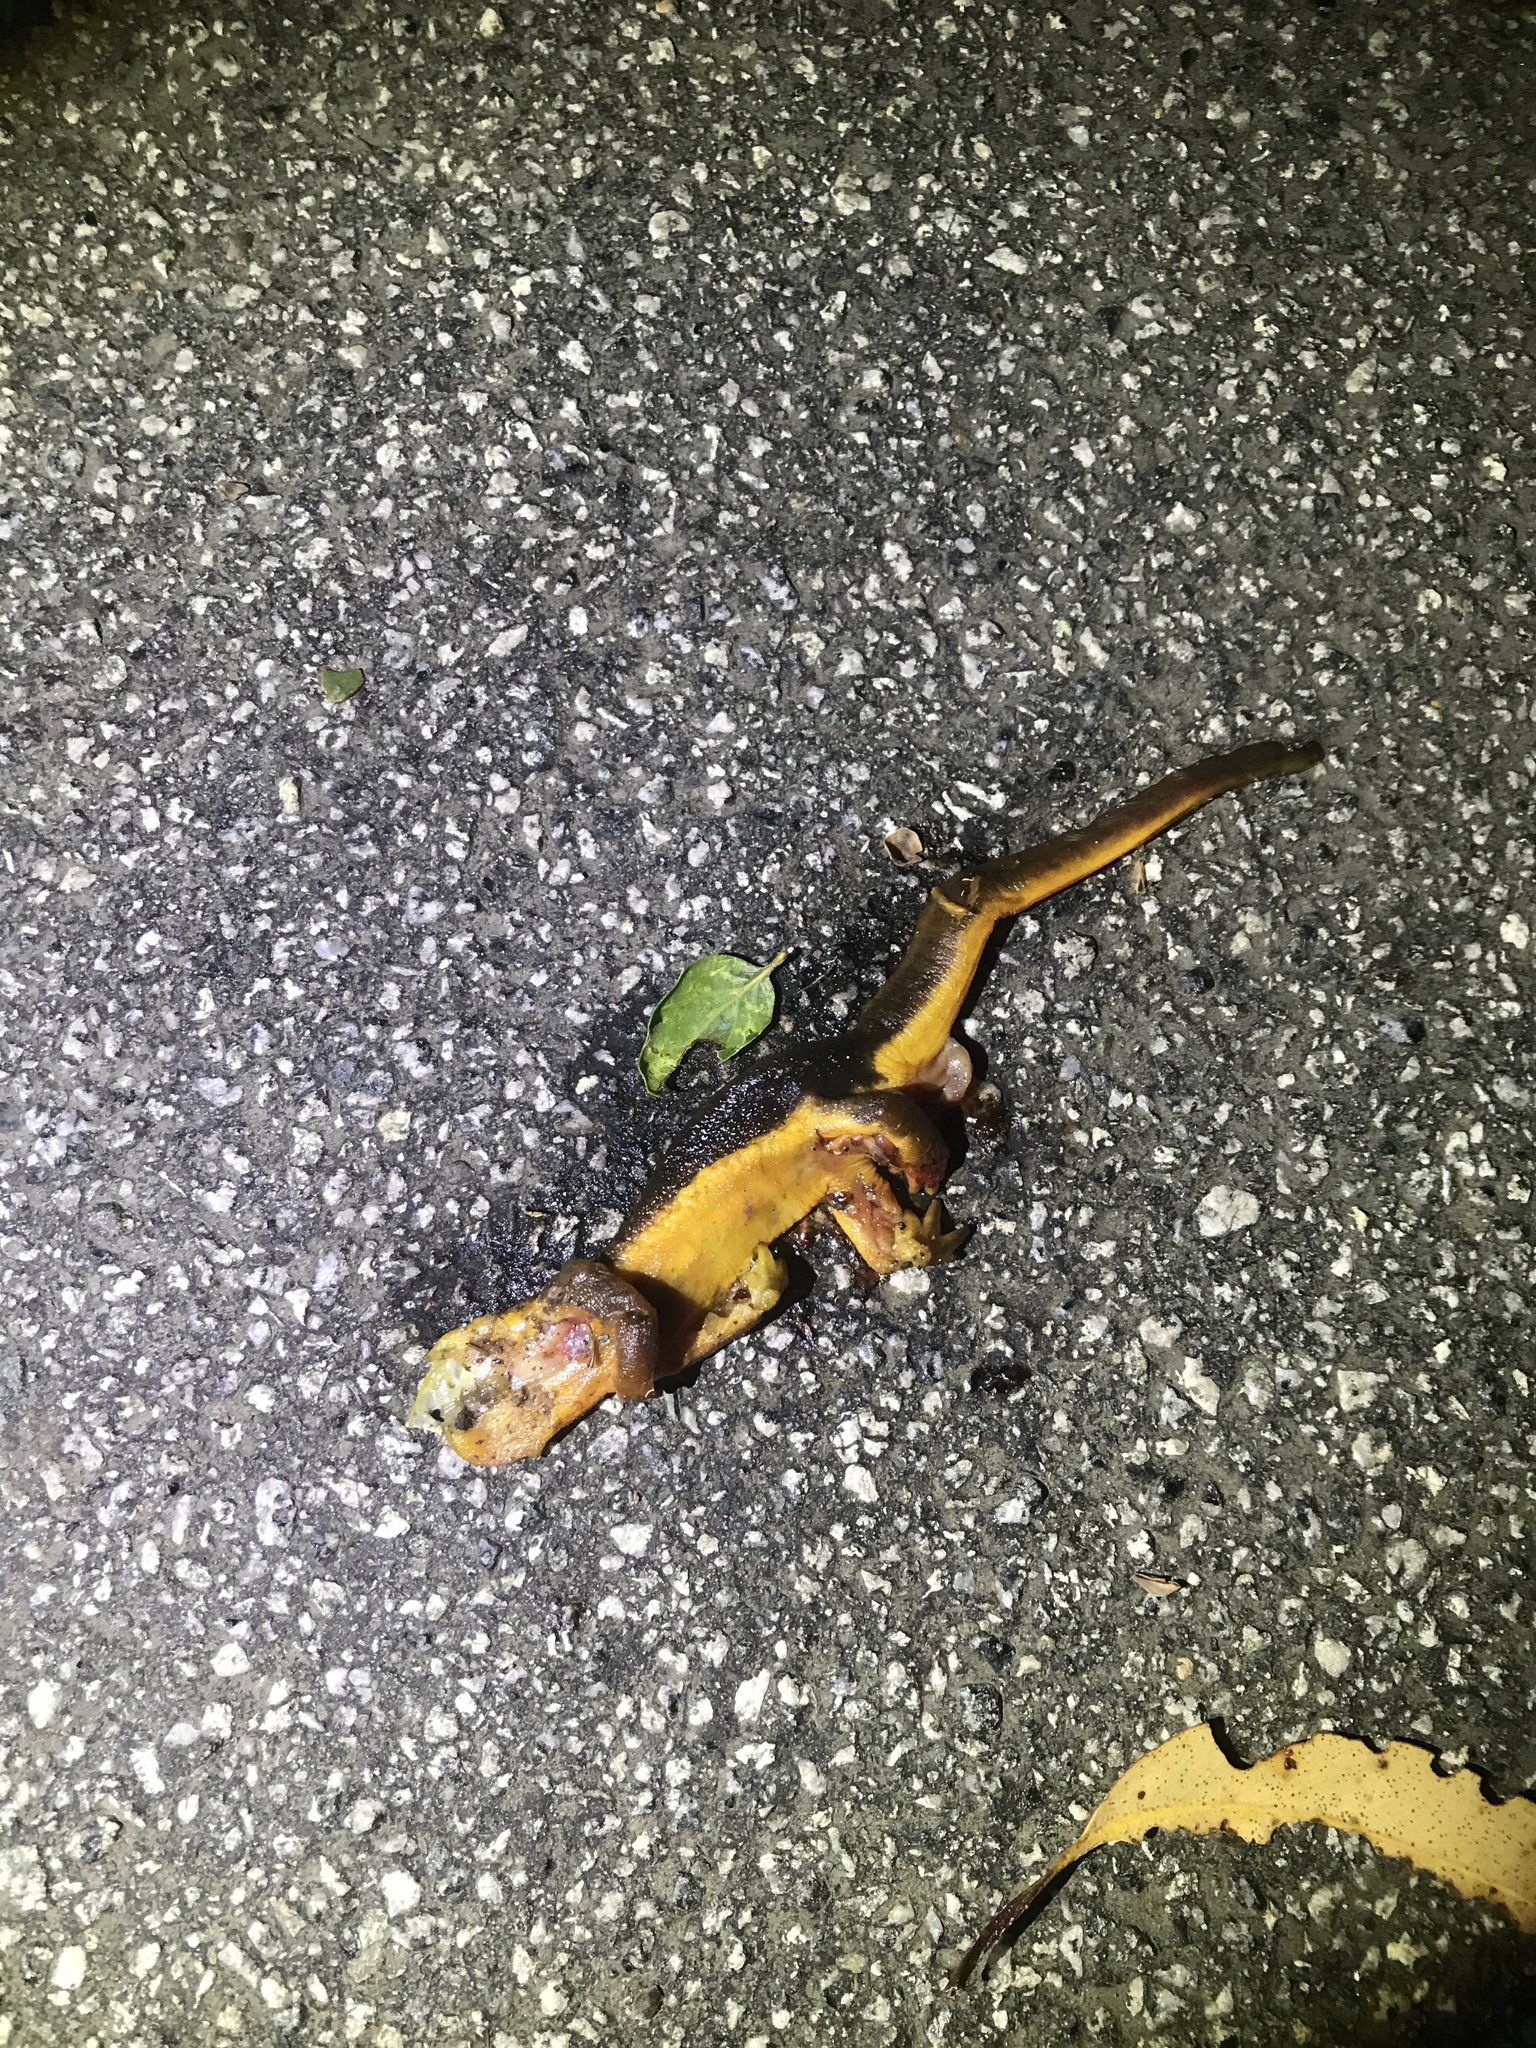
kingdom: Animalia
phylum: Chordata
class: Amphibia
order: Caudata
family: Salamandridae
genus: Taricha
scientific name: Taricha
